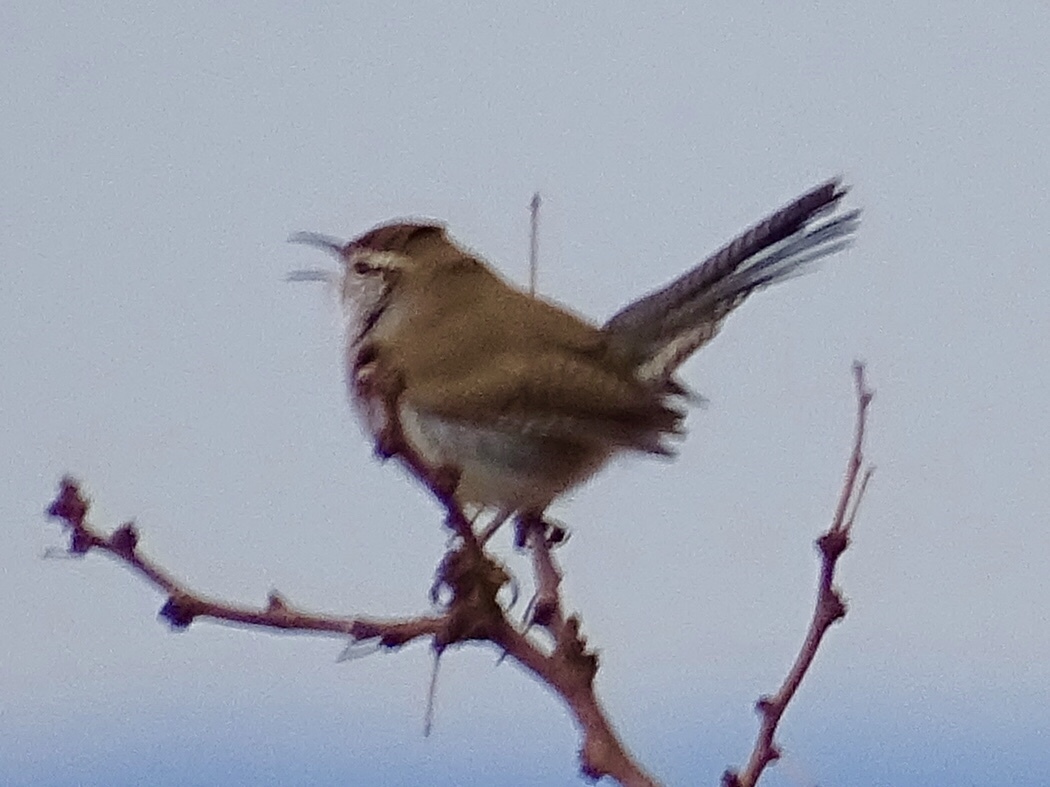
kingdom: Animalia
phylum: Chordata
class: Aves
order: Passeriformes
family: Troglodytidae
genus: Thryomanes
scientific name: Thryomanes bewickii
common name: Bewick's wren
